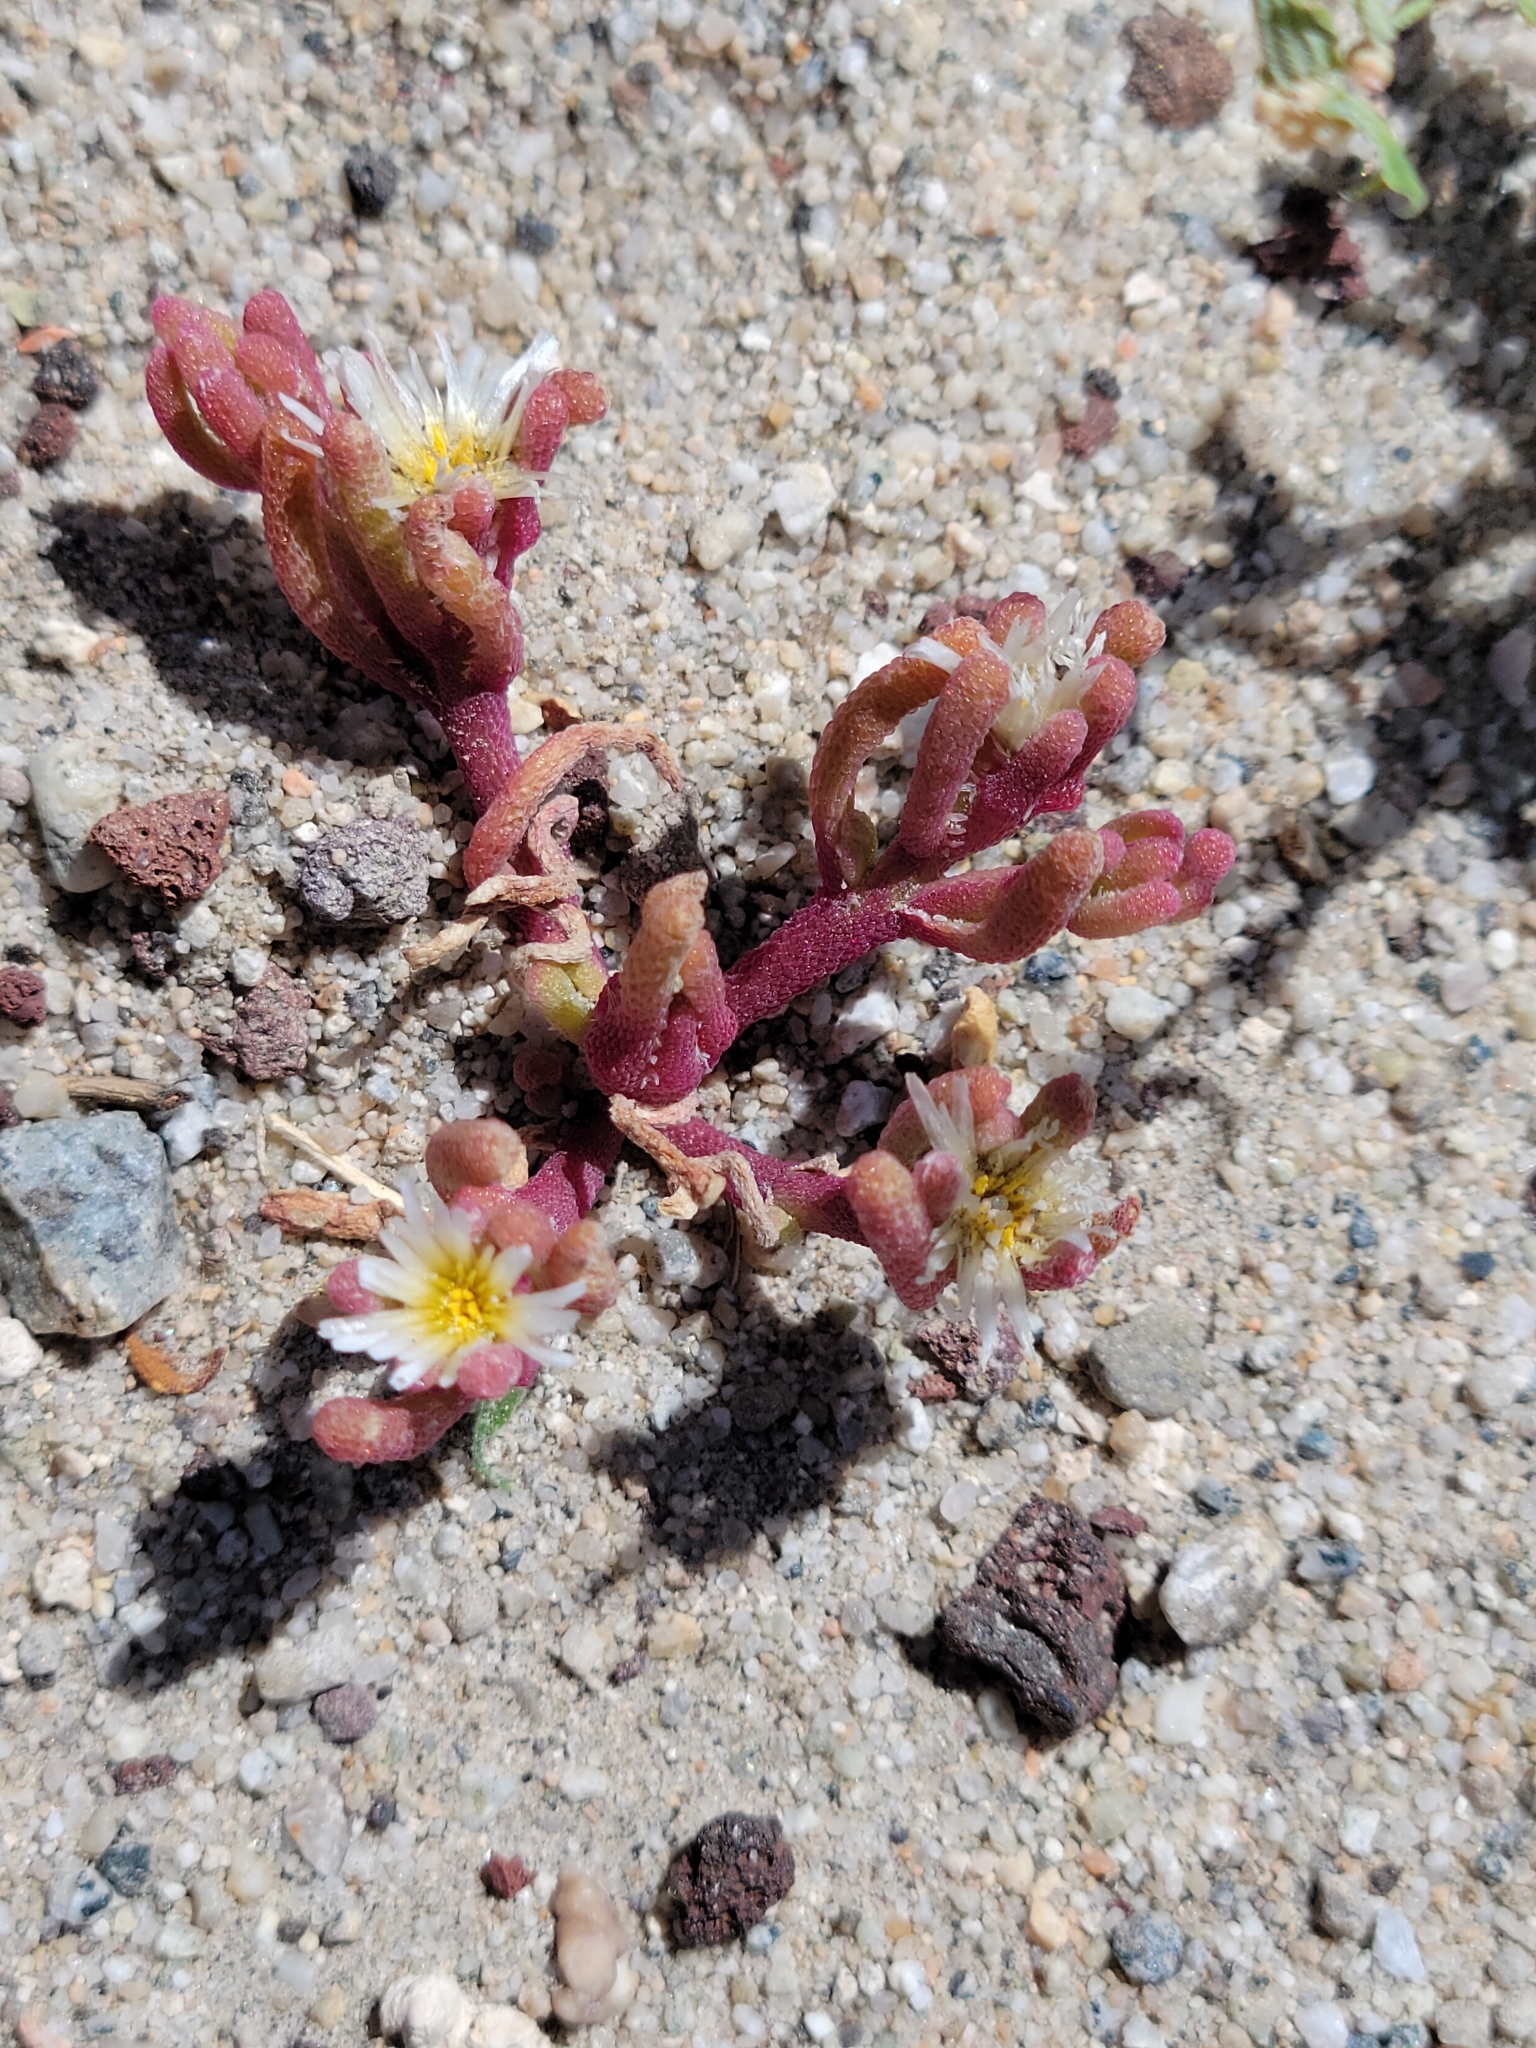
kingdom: Plantae
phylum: Tracheophyta
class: Magnoliopsida
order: Caryophyllales
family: Aizoaceae
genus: Mesembryanthemum
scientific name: Mesembryanthemum nodiflorum
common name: Slenderleaf iceplant
